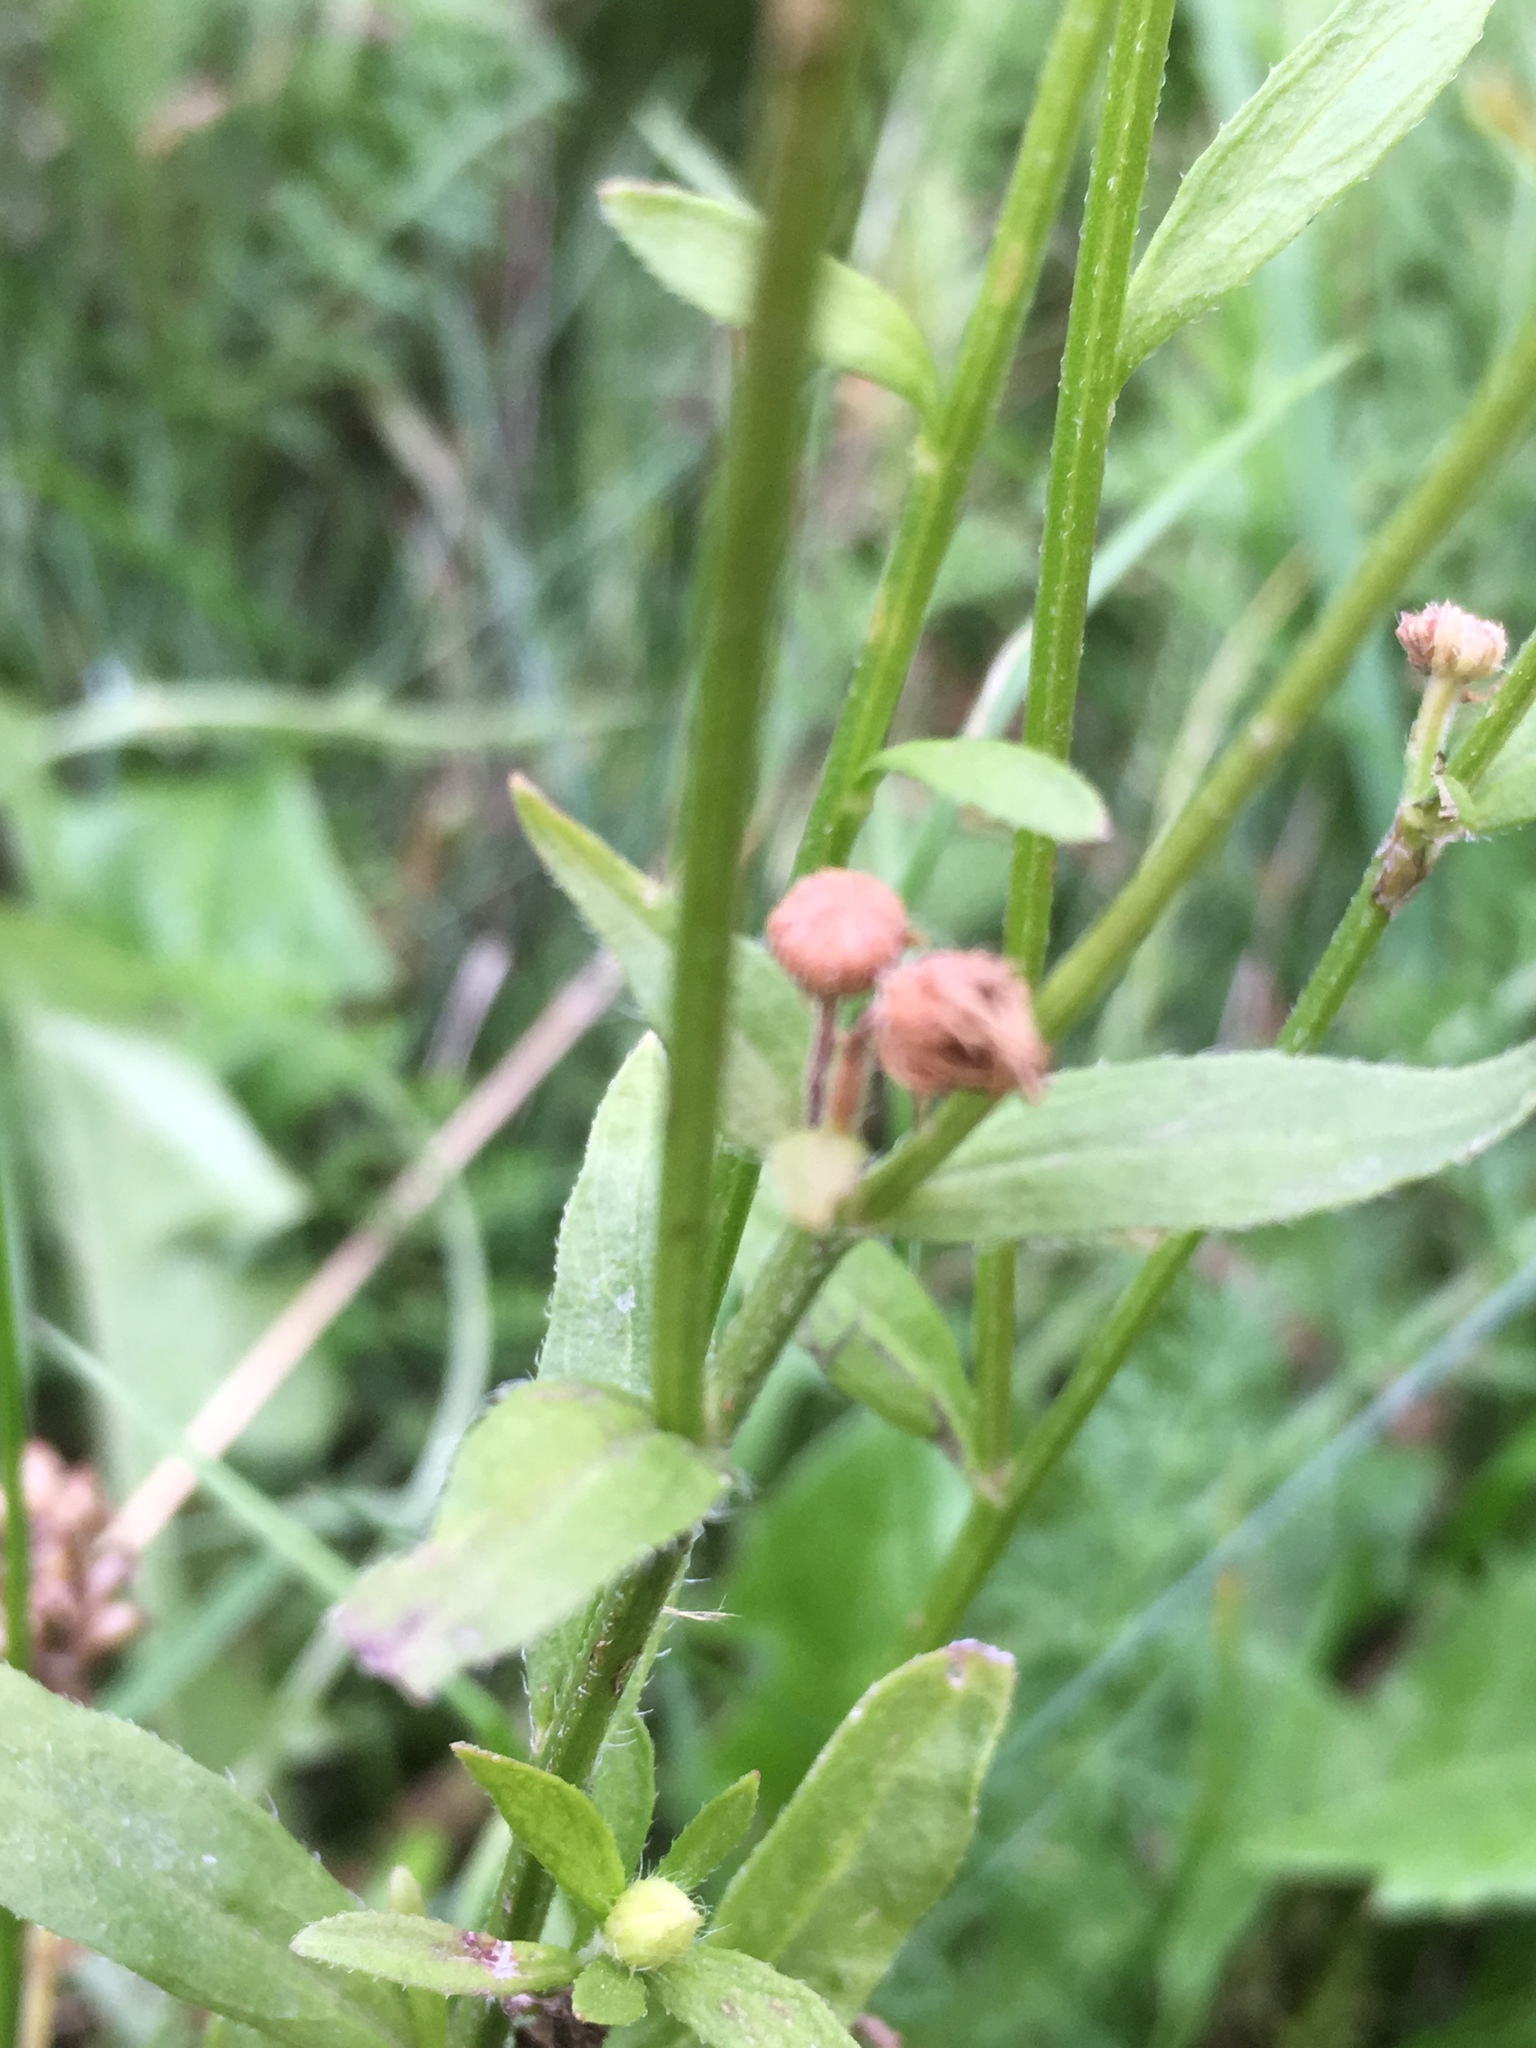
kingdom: Plantae
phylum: Tracheophyta
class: Magnoliopsida
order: Asterales
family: Asteraceae
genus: Erigeron
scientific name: Erigeron annuus
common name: Tall fleabane
